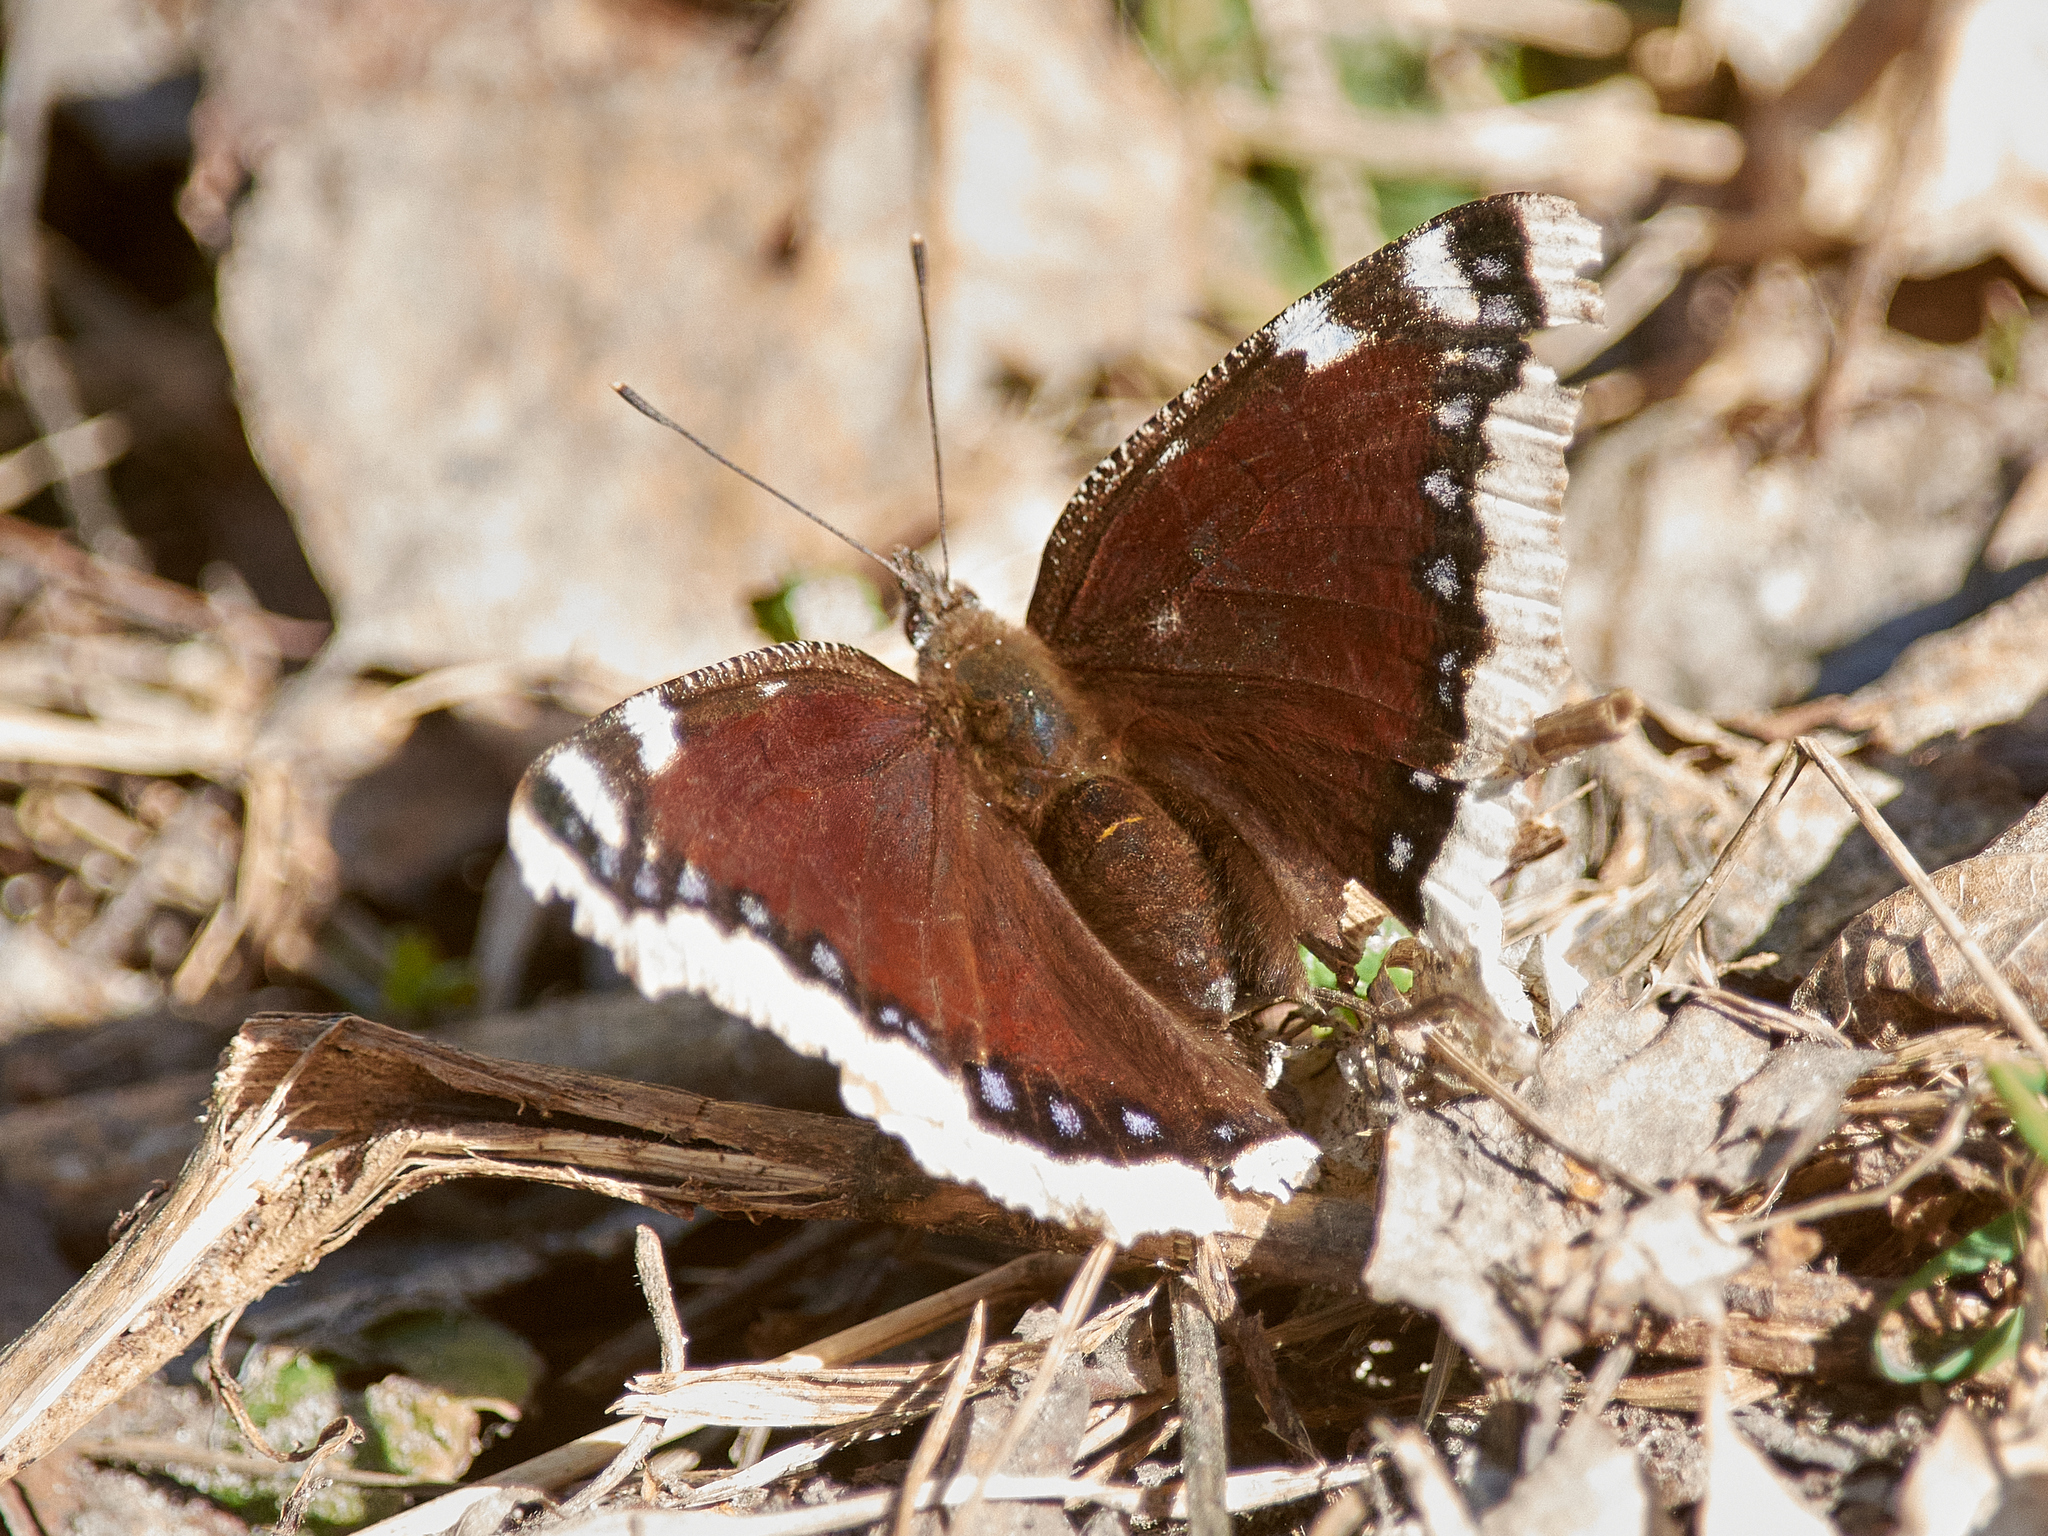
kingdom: Animalia
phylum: Arthropoda
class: Insecta
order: Lepidoptera
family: Nymphalidae
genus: Nymphalis
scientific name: Nymphalis antiopa
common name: Camberwell beauty
